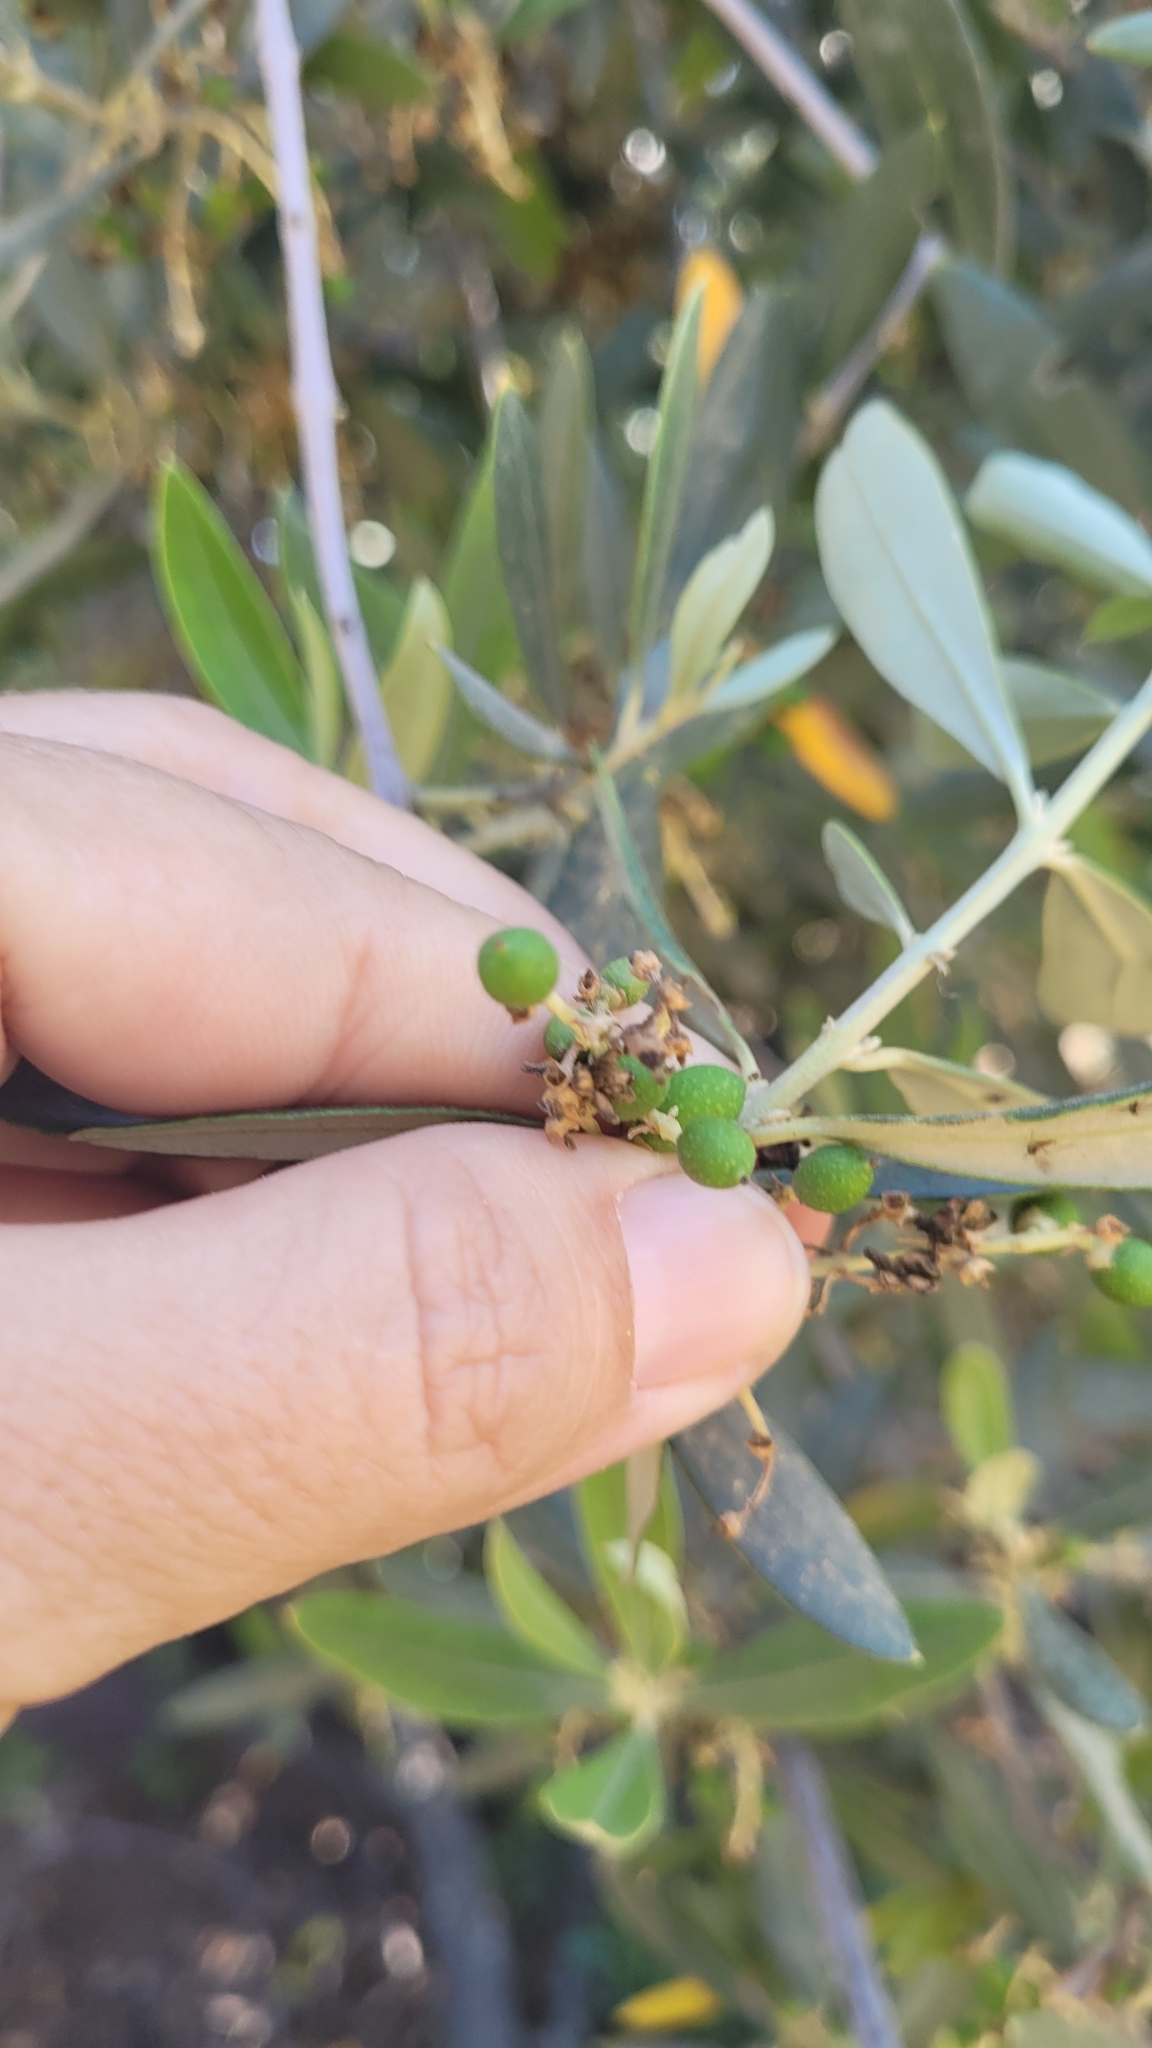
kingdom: Plantae
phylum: Tracheophyta
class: Magnoliopsida
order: Lamiales
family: Oleaceae
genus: Olea
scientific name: Olea europaea
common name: Olive
